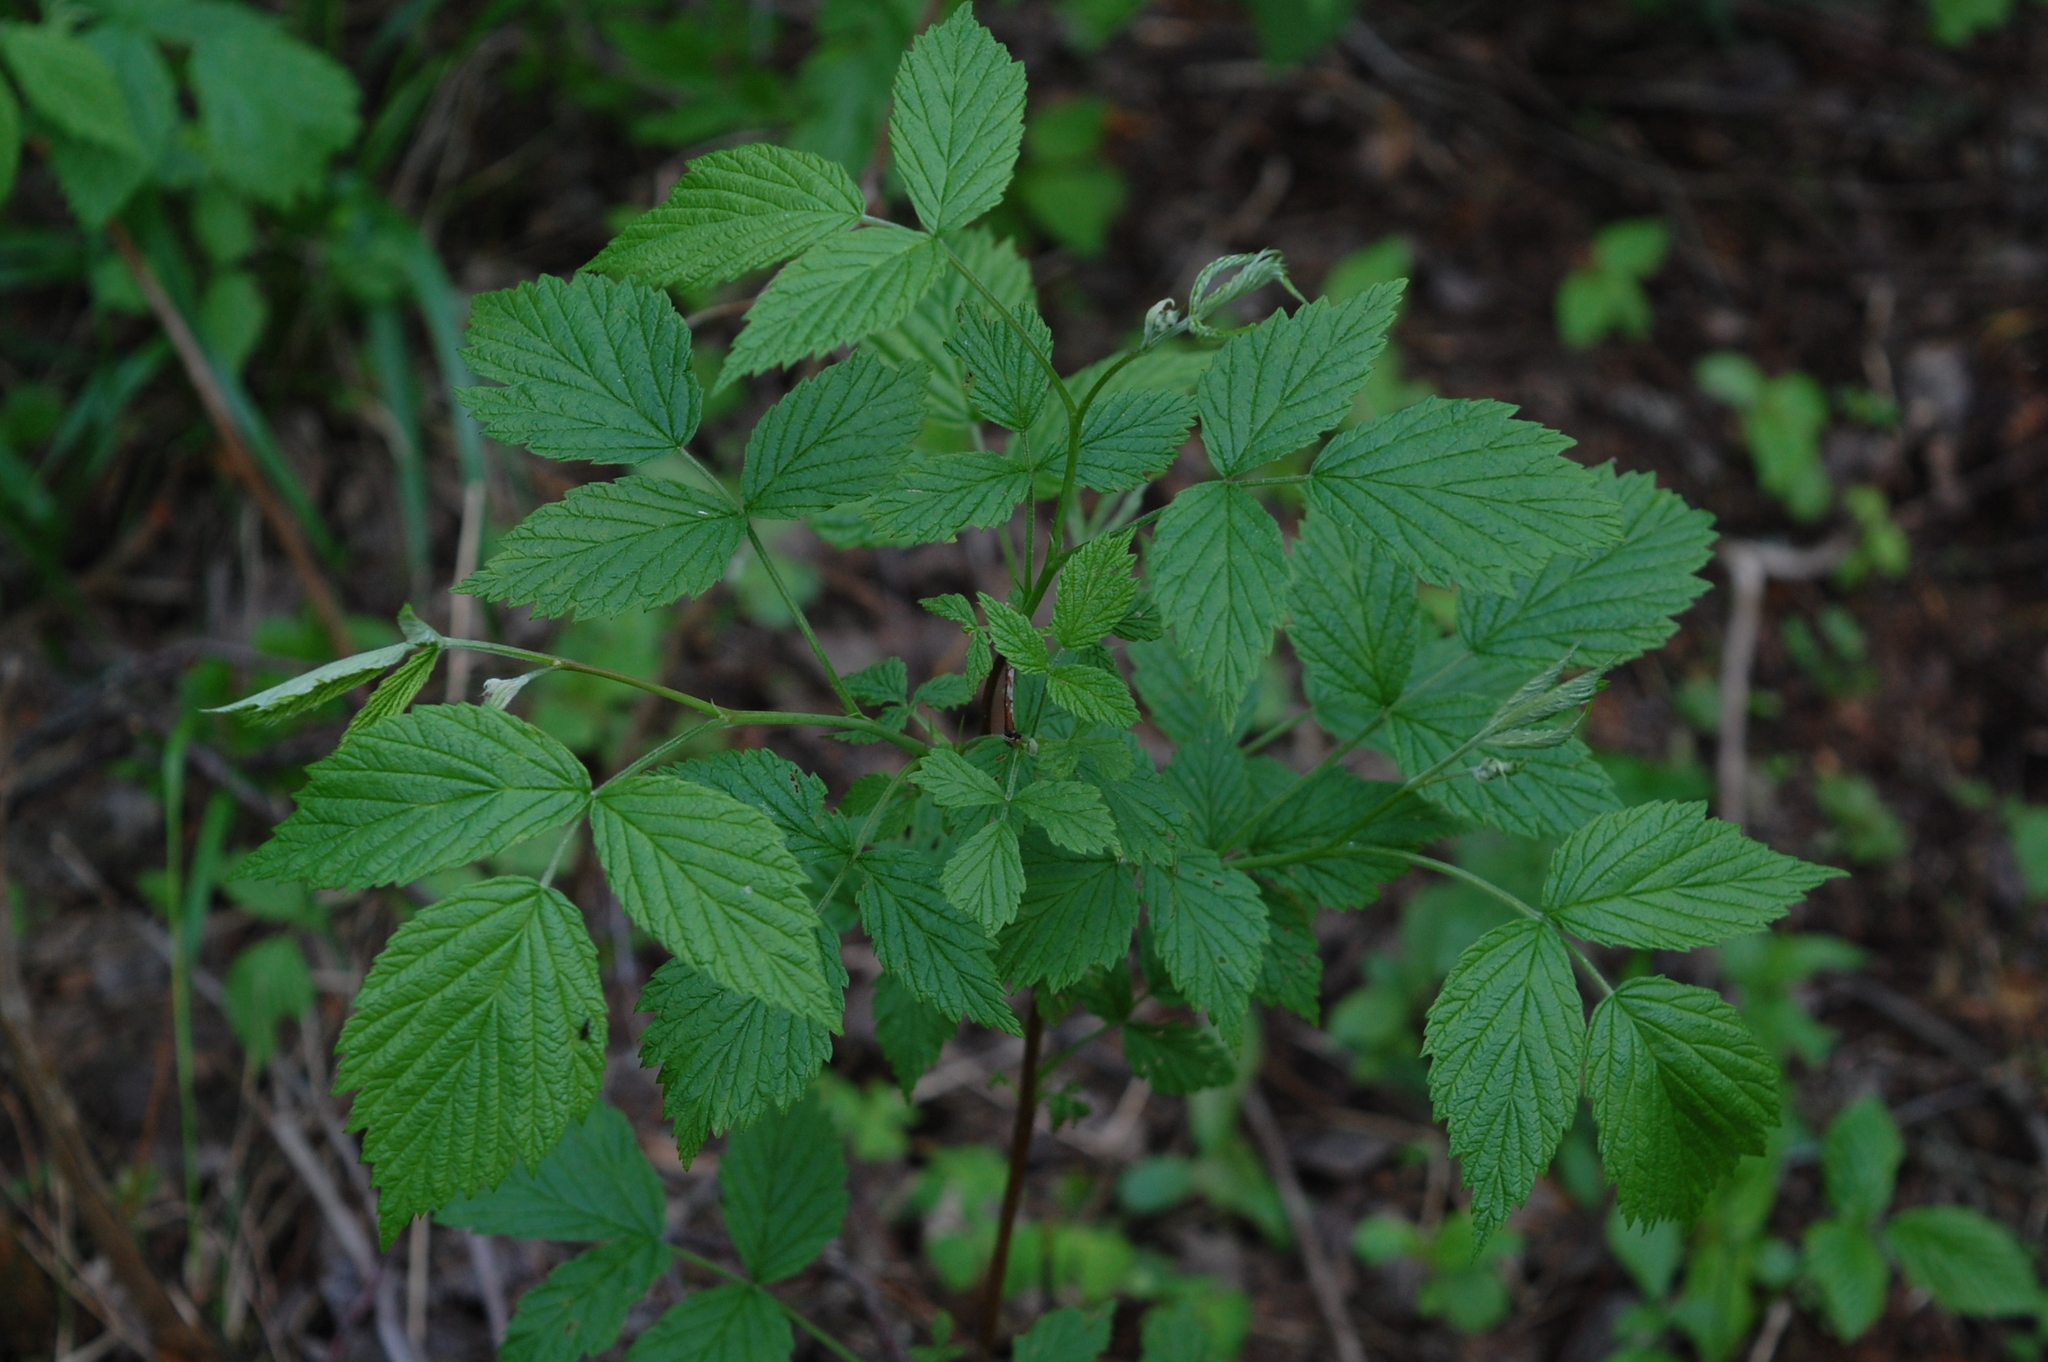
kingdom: Plantae
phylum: Tracheophyta
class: Magnoliopsida
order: Rosales
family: Rosaceae
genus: Rubus
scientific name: Rubus idaeus
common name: Raspberry
